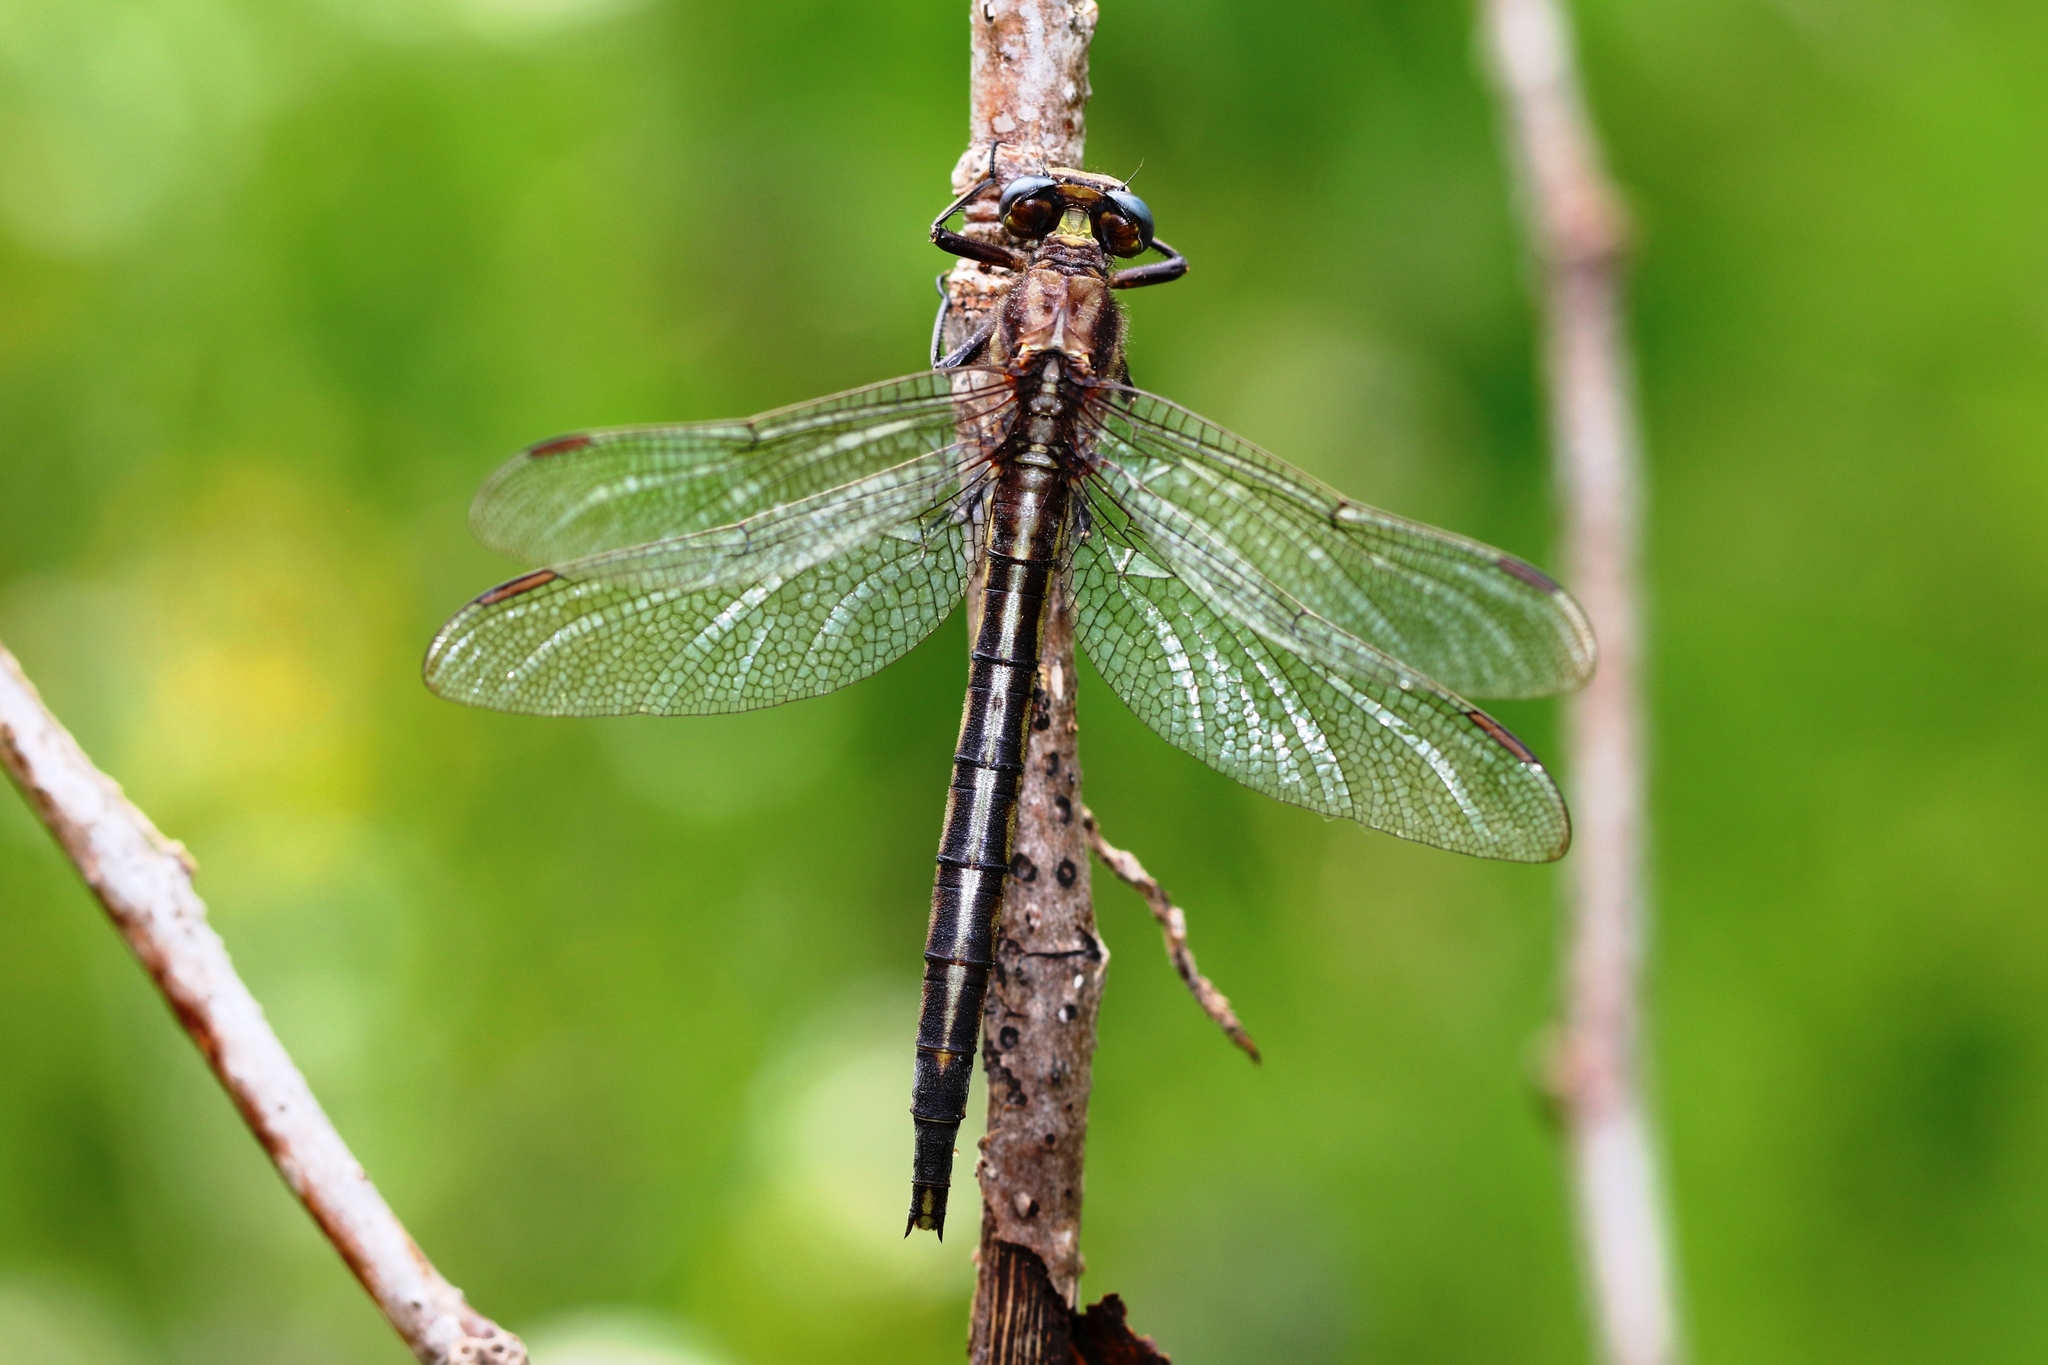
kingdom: Animalia
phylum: Arthropoda
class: Insecta
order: Odonata
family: Gomphidae
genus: Phanogomphus
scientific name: Phanogomphus spicatus
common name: Dusky clubtail
